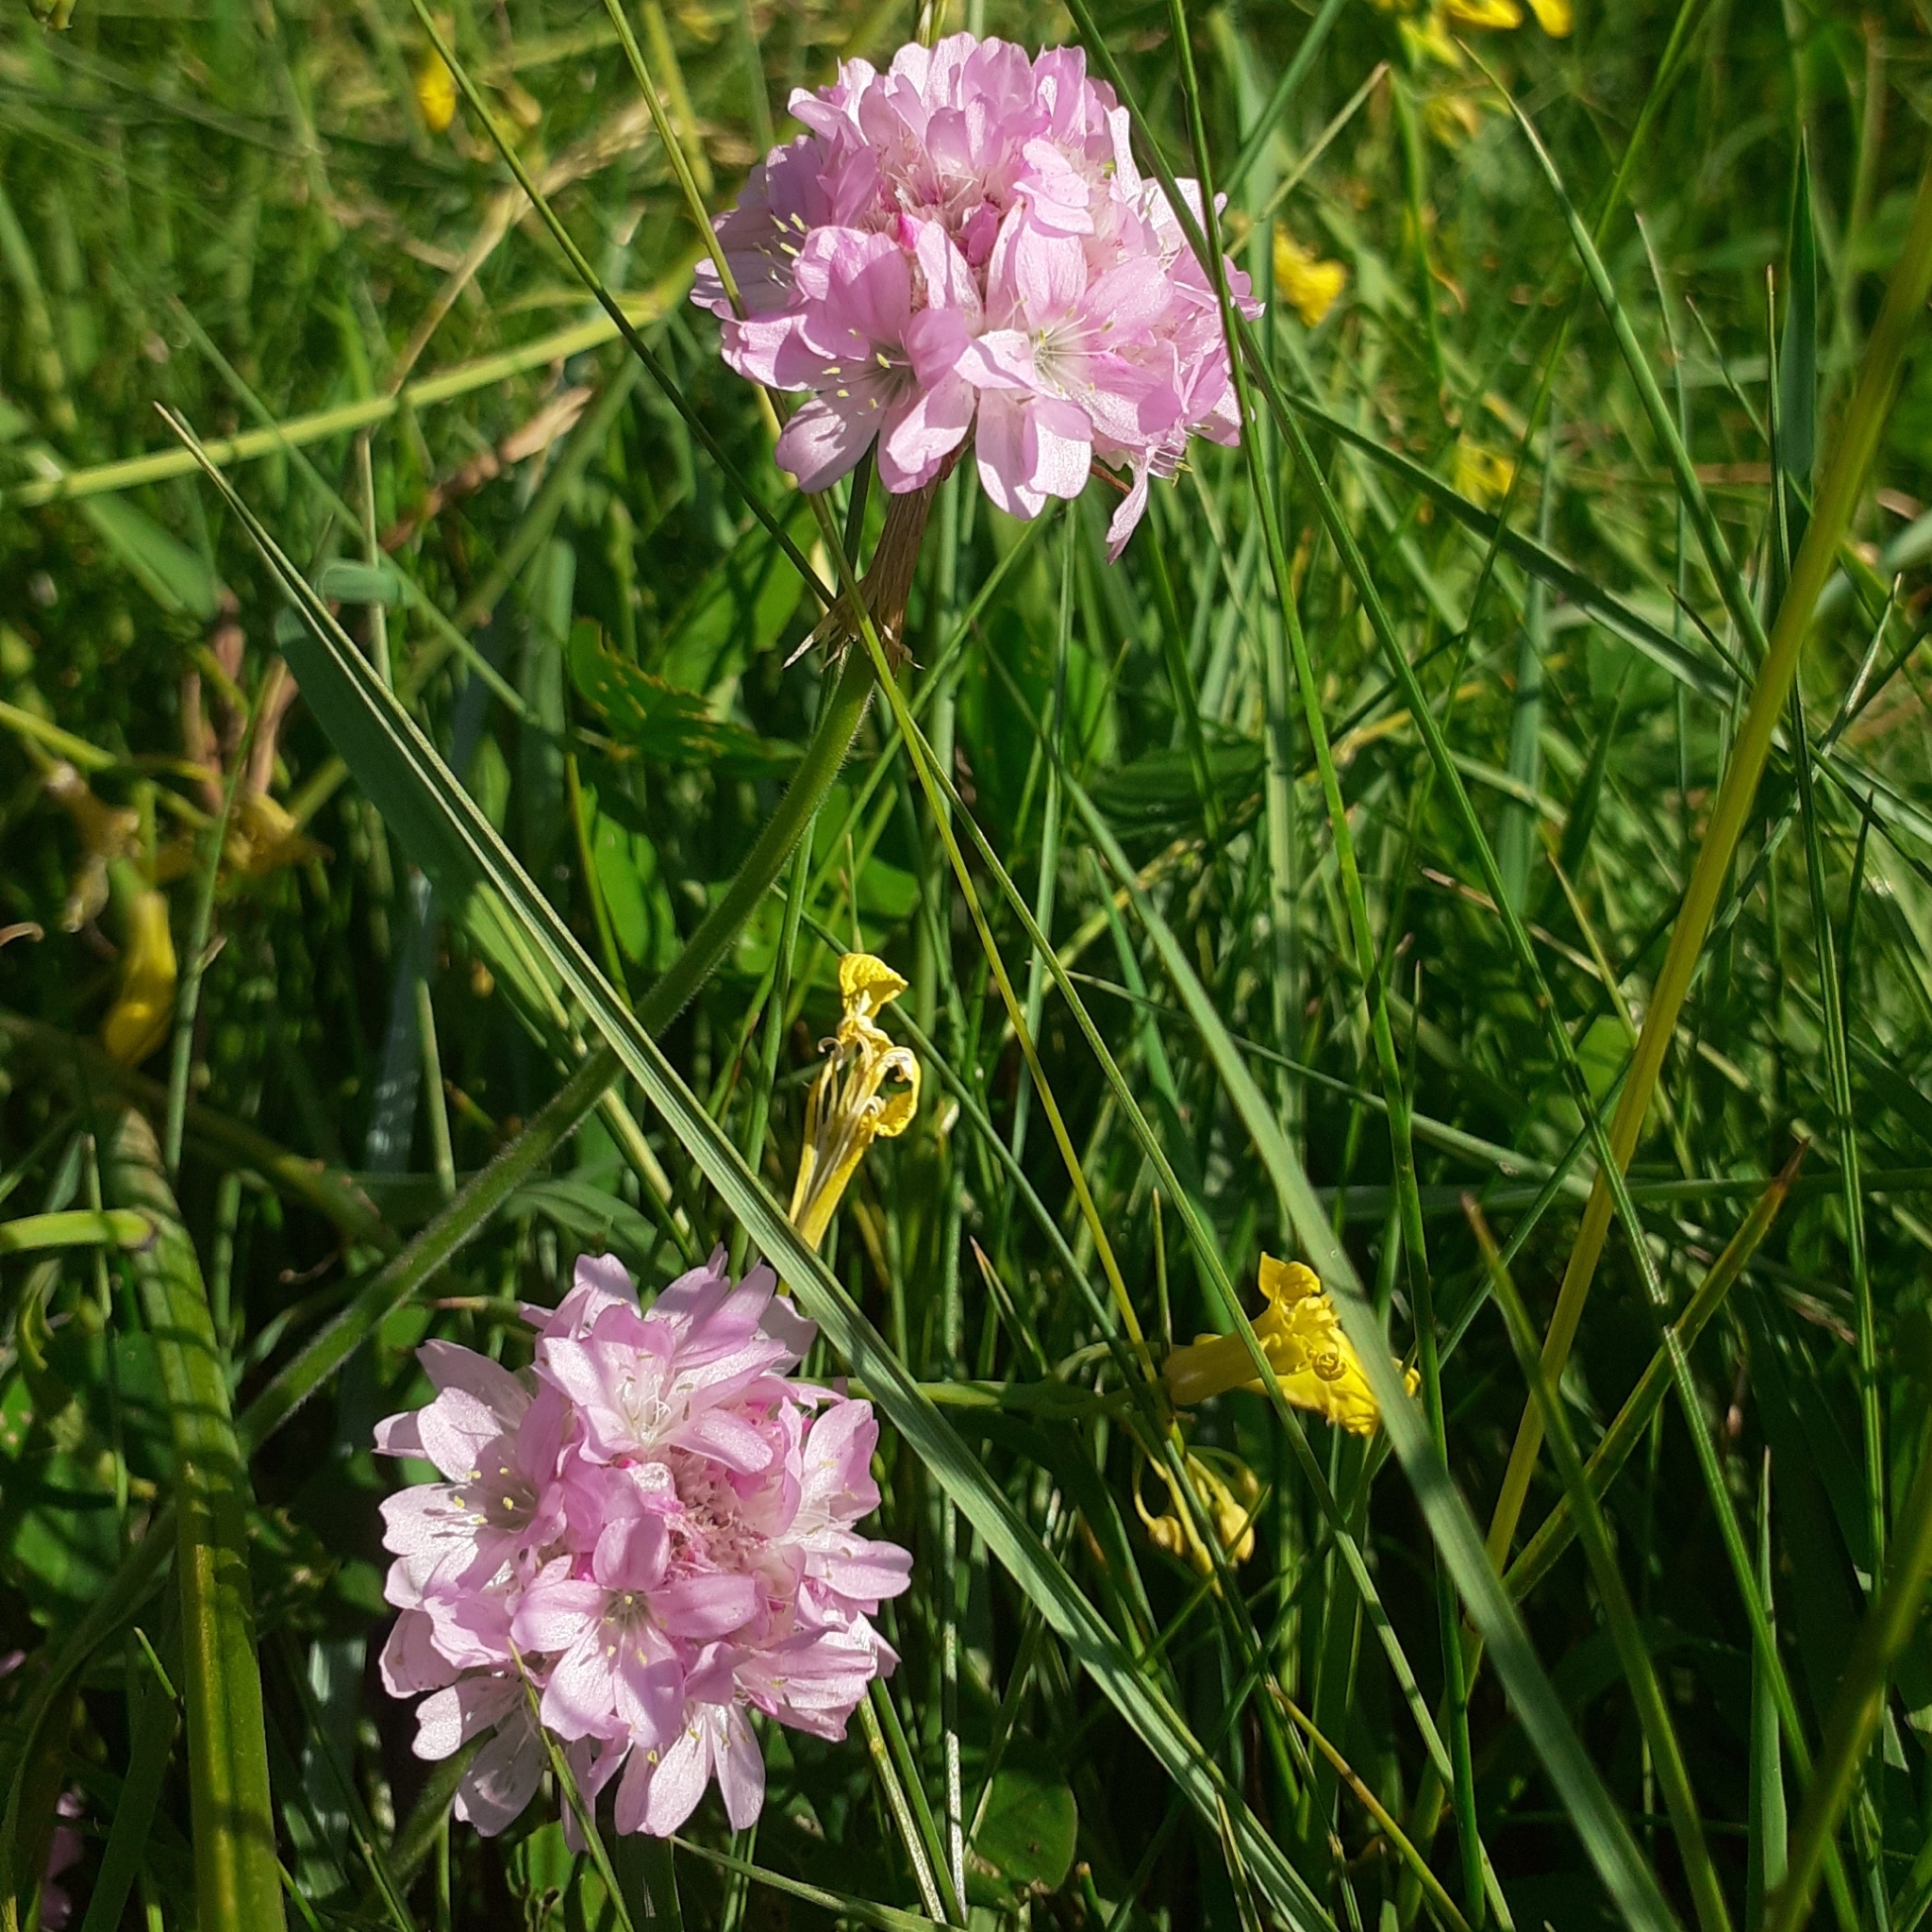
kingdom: Plantae
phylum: Tracheophyta
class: Magnoliopsida
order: Caryophyllales
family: Plumbaginaceae
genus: Armeria
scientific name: Armeria maritima
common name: Thrift
